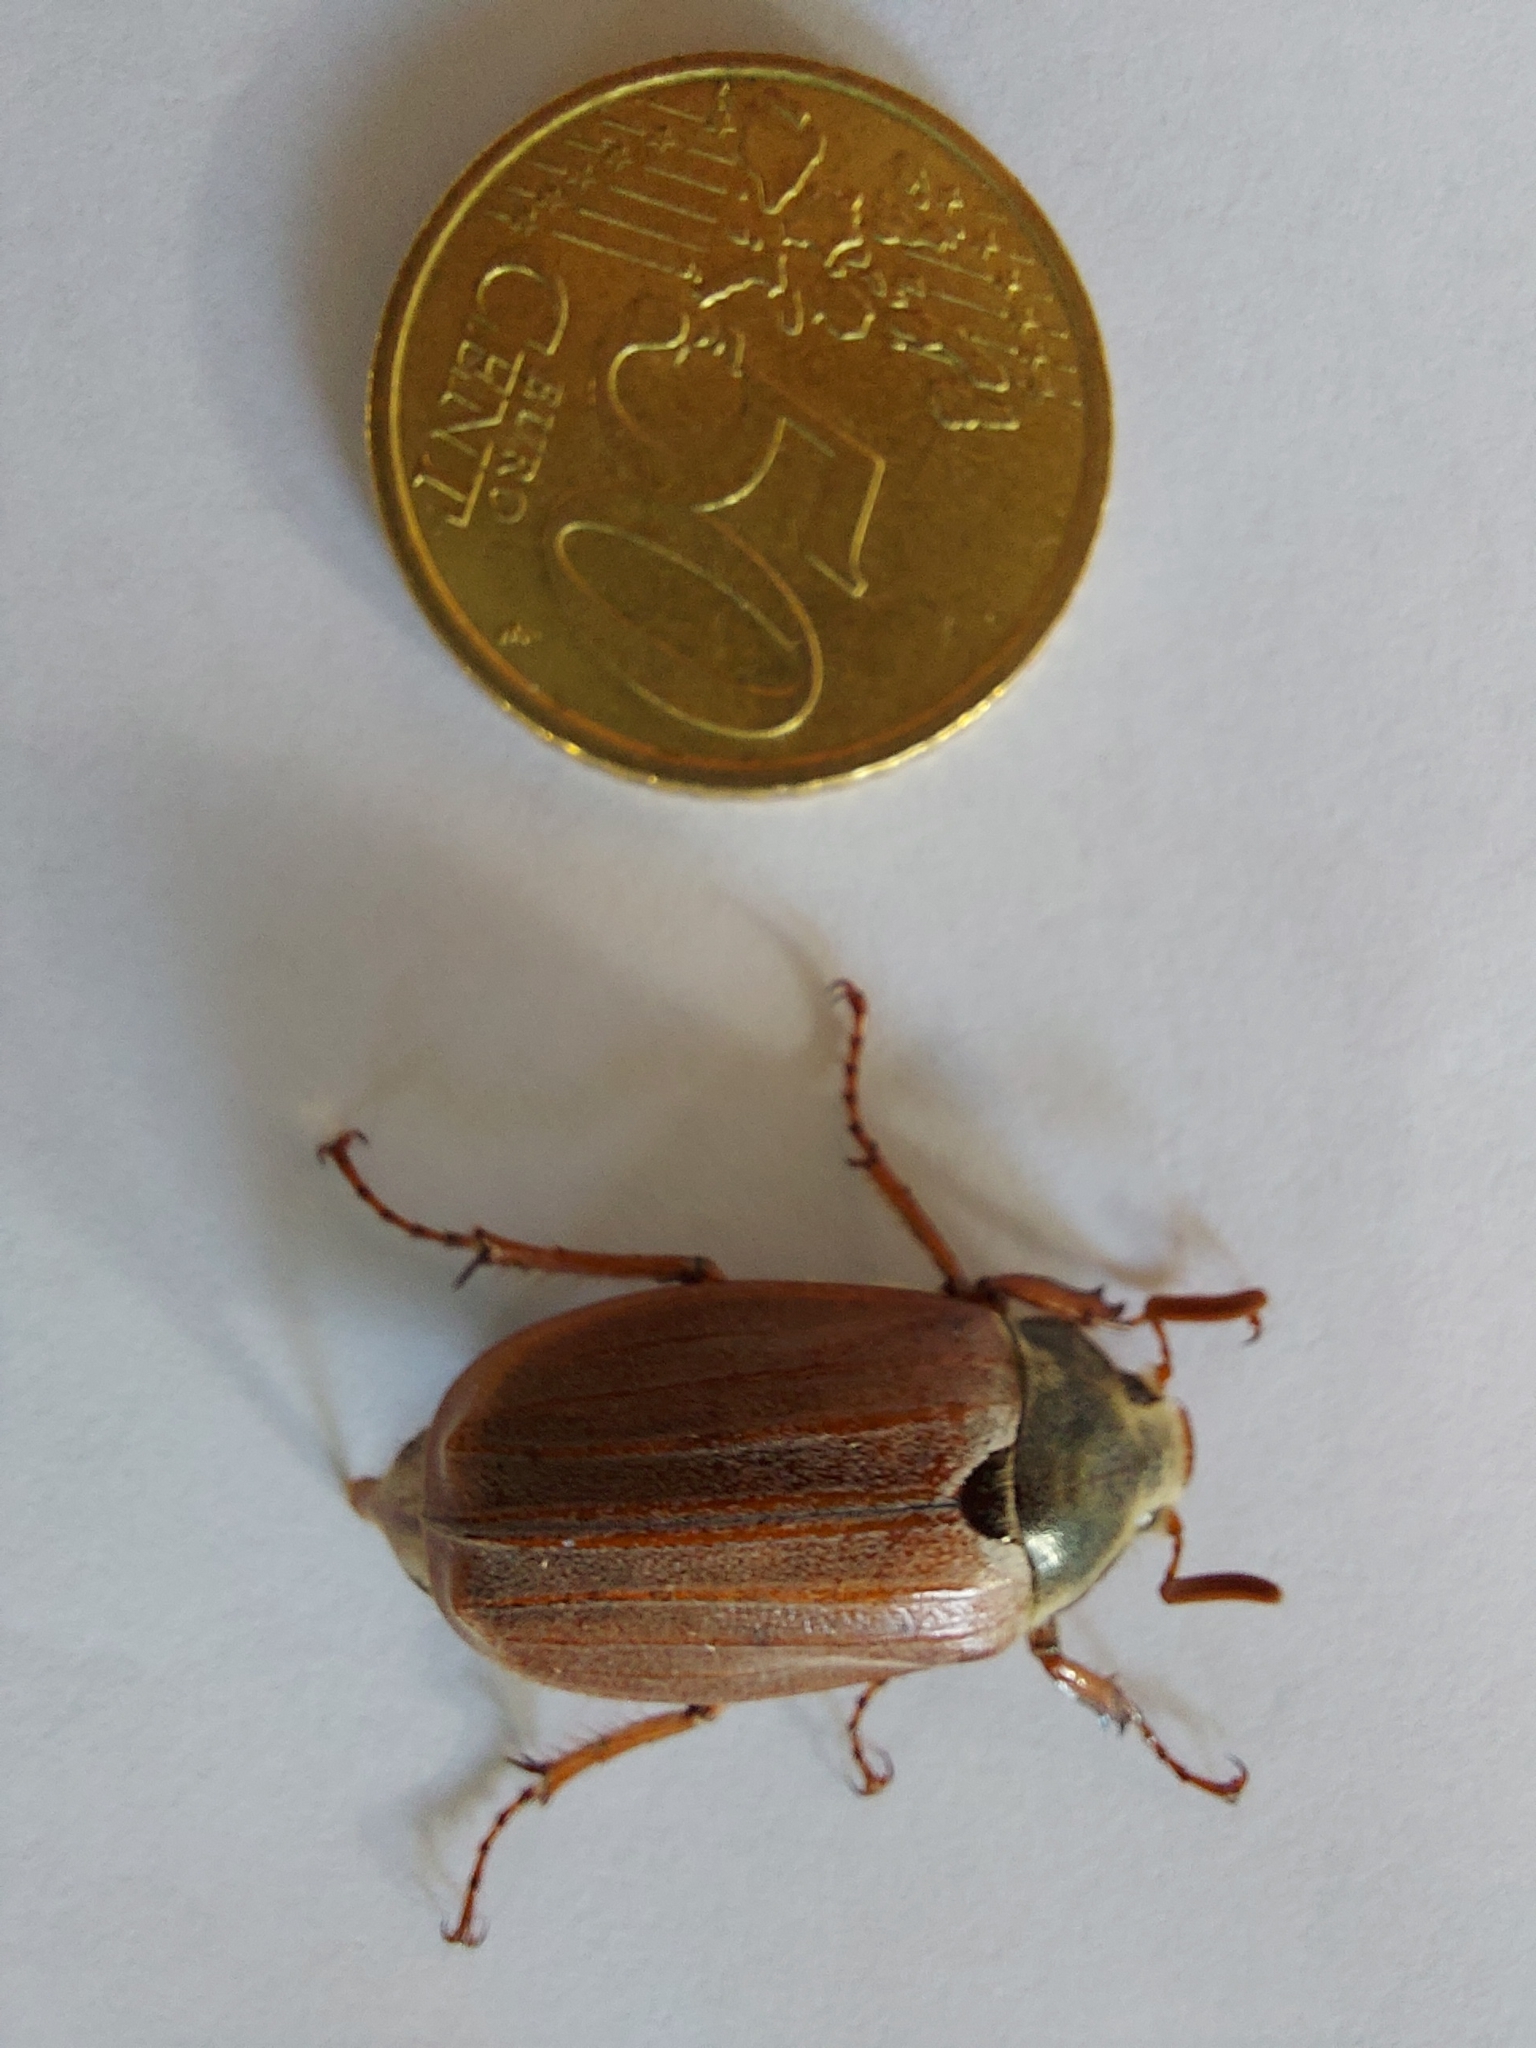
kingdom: Animalia
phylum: Arthropoda
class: Insecta
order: Coleoptera
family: Scarabaeidae
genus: Melolontha
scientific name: Melolontha melolontha
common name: Cockchafer maybeetle
